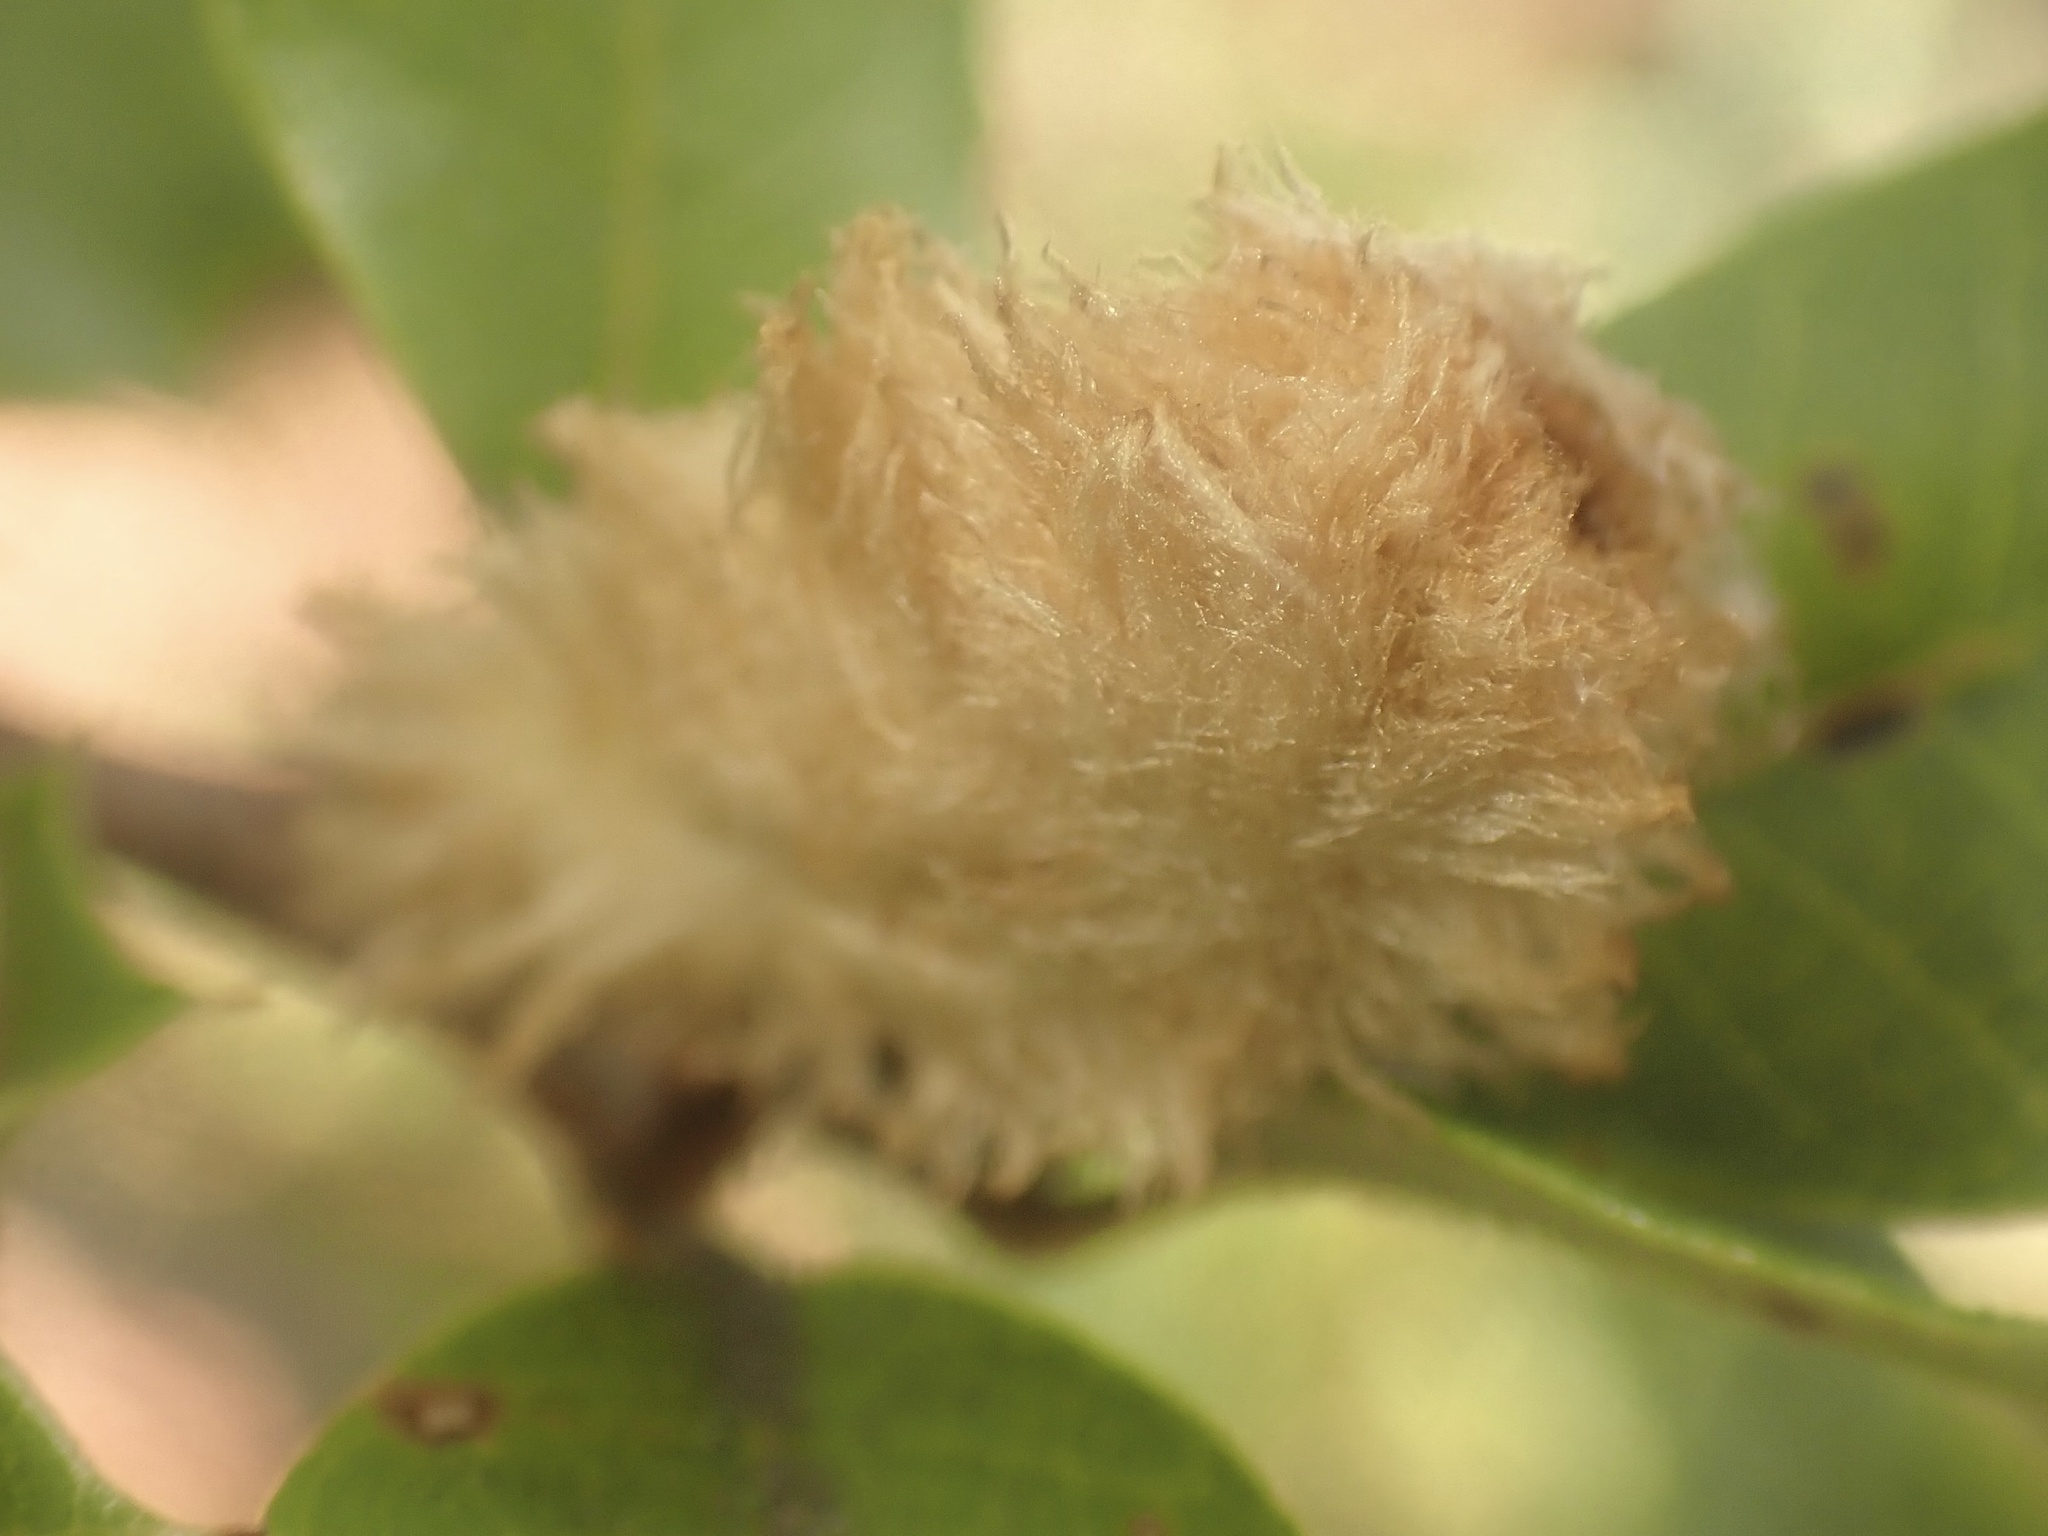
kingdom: Animalia
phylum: Arthropoda
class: Insecta
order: Hymenoptera
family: Cynipidae
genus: Heteroecus
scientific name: Heteroecus
